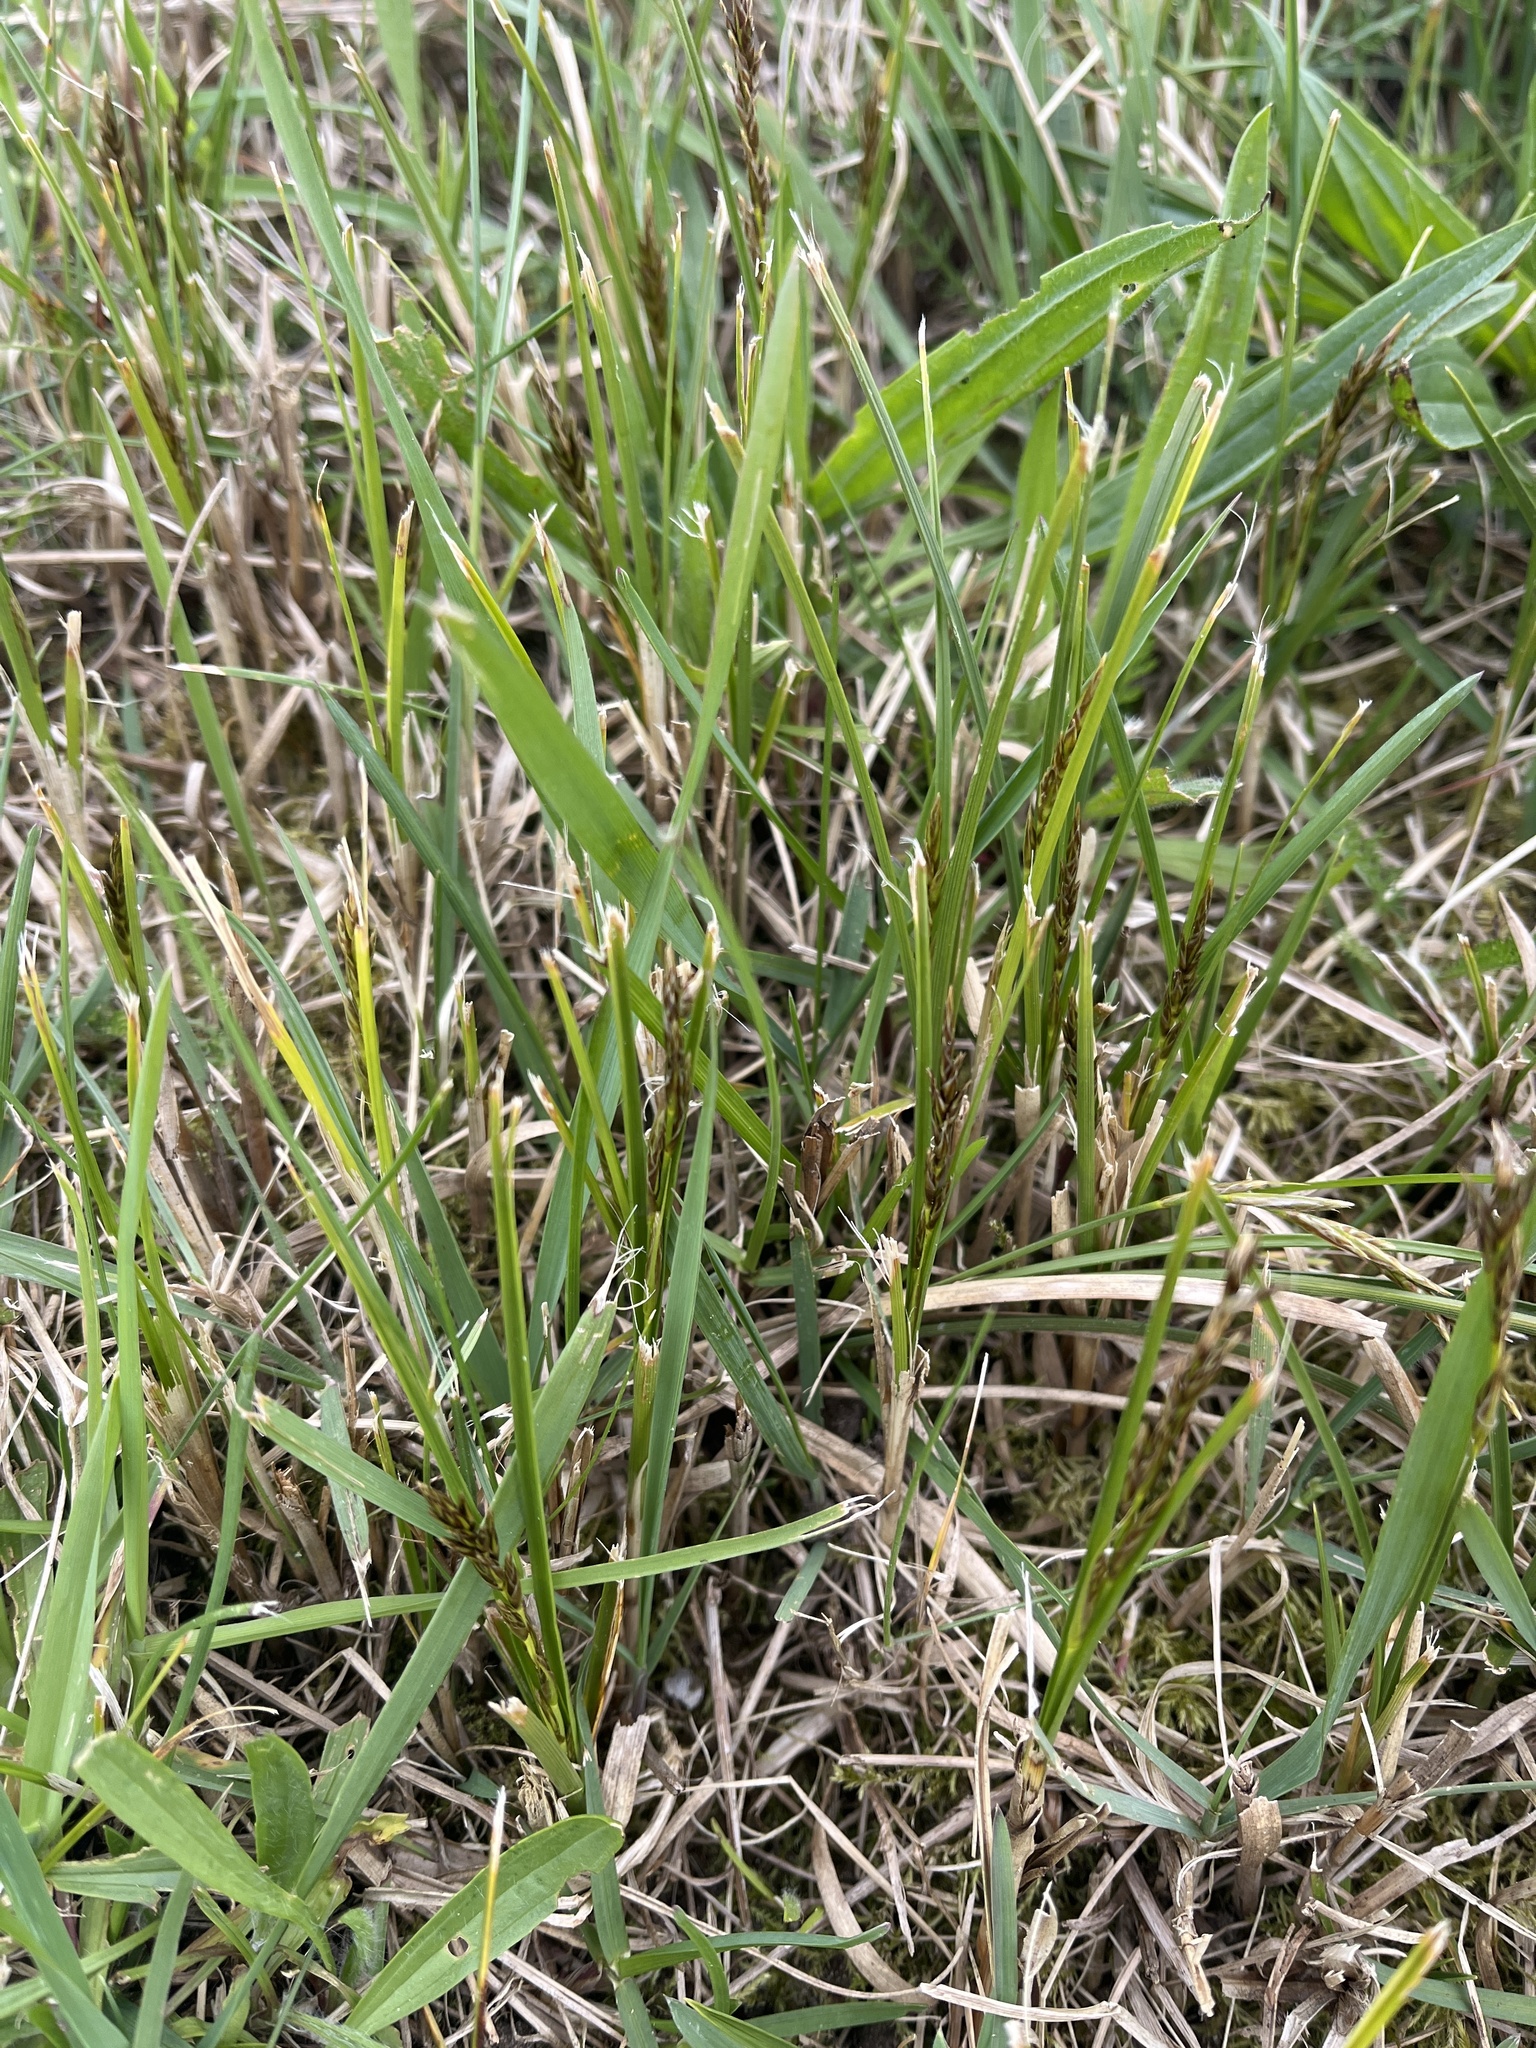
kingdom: Plantae
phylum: Tracheophyta
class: Liliopsida
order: Poales
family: Cyperaceae
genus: Carex
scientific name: Carex arenaria
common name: Sand sedge
